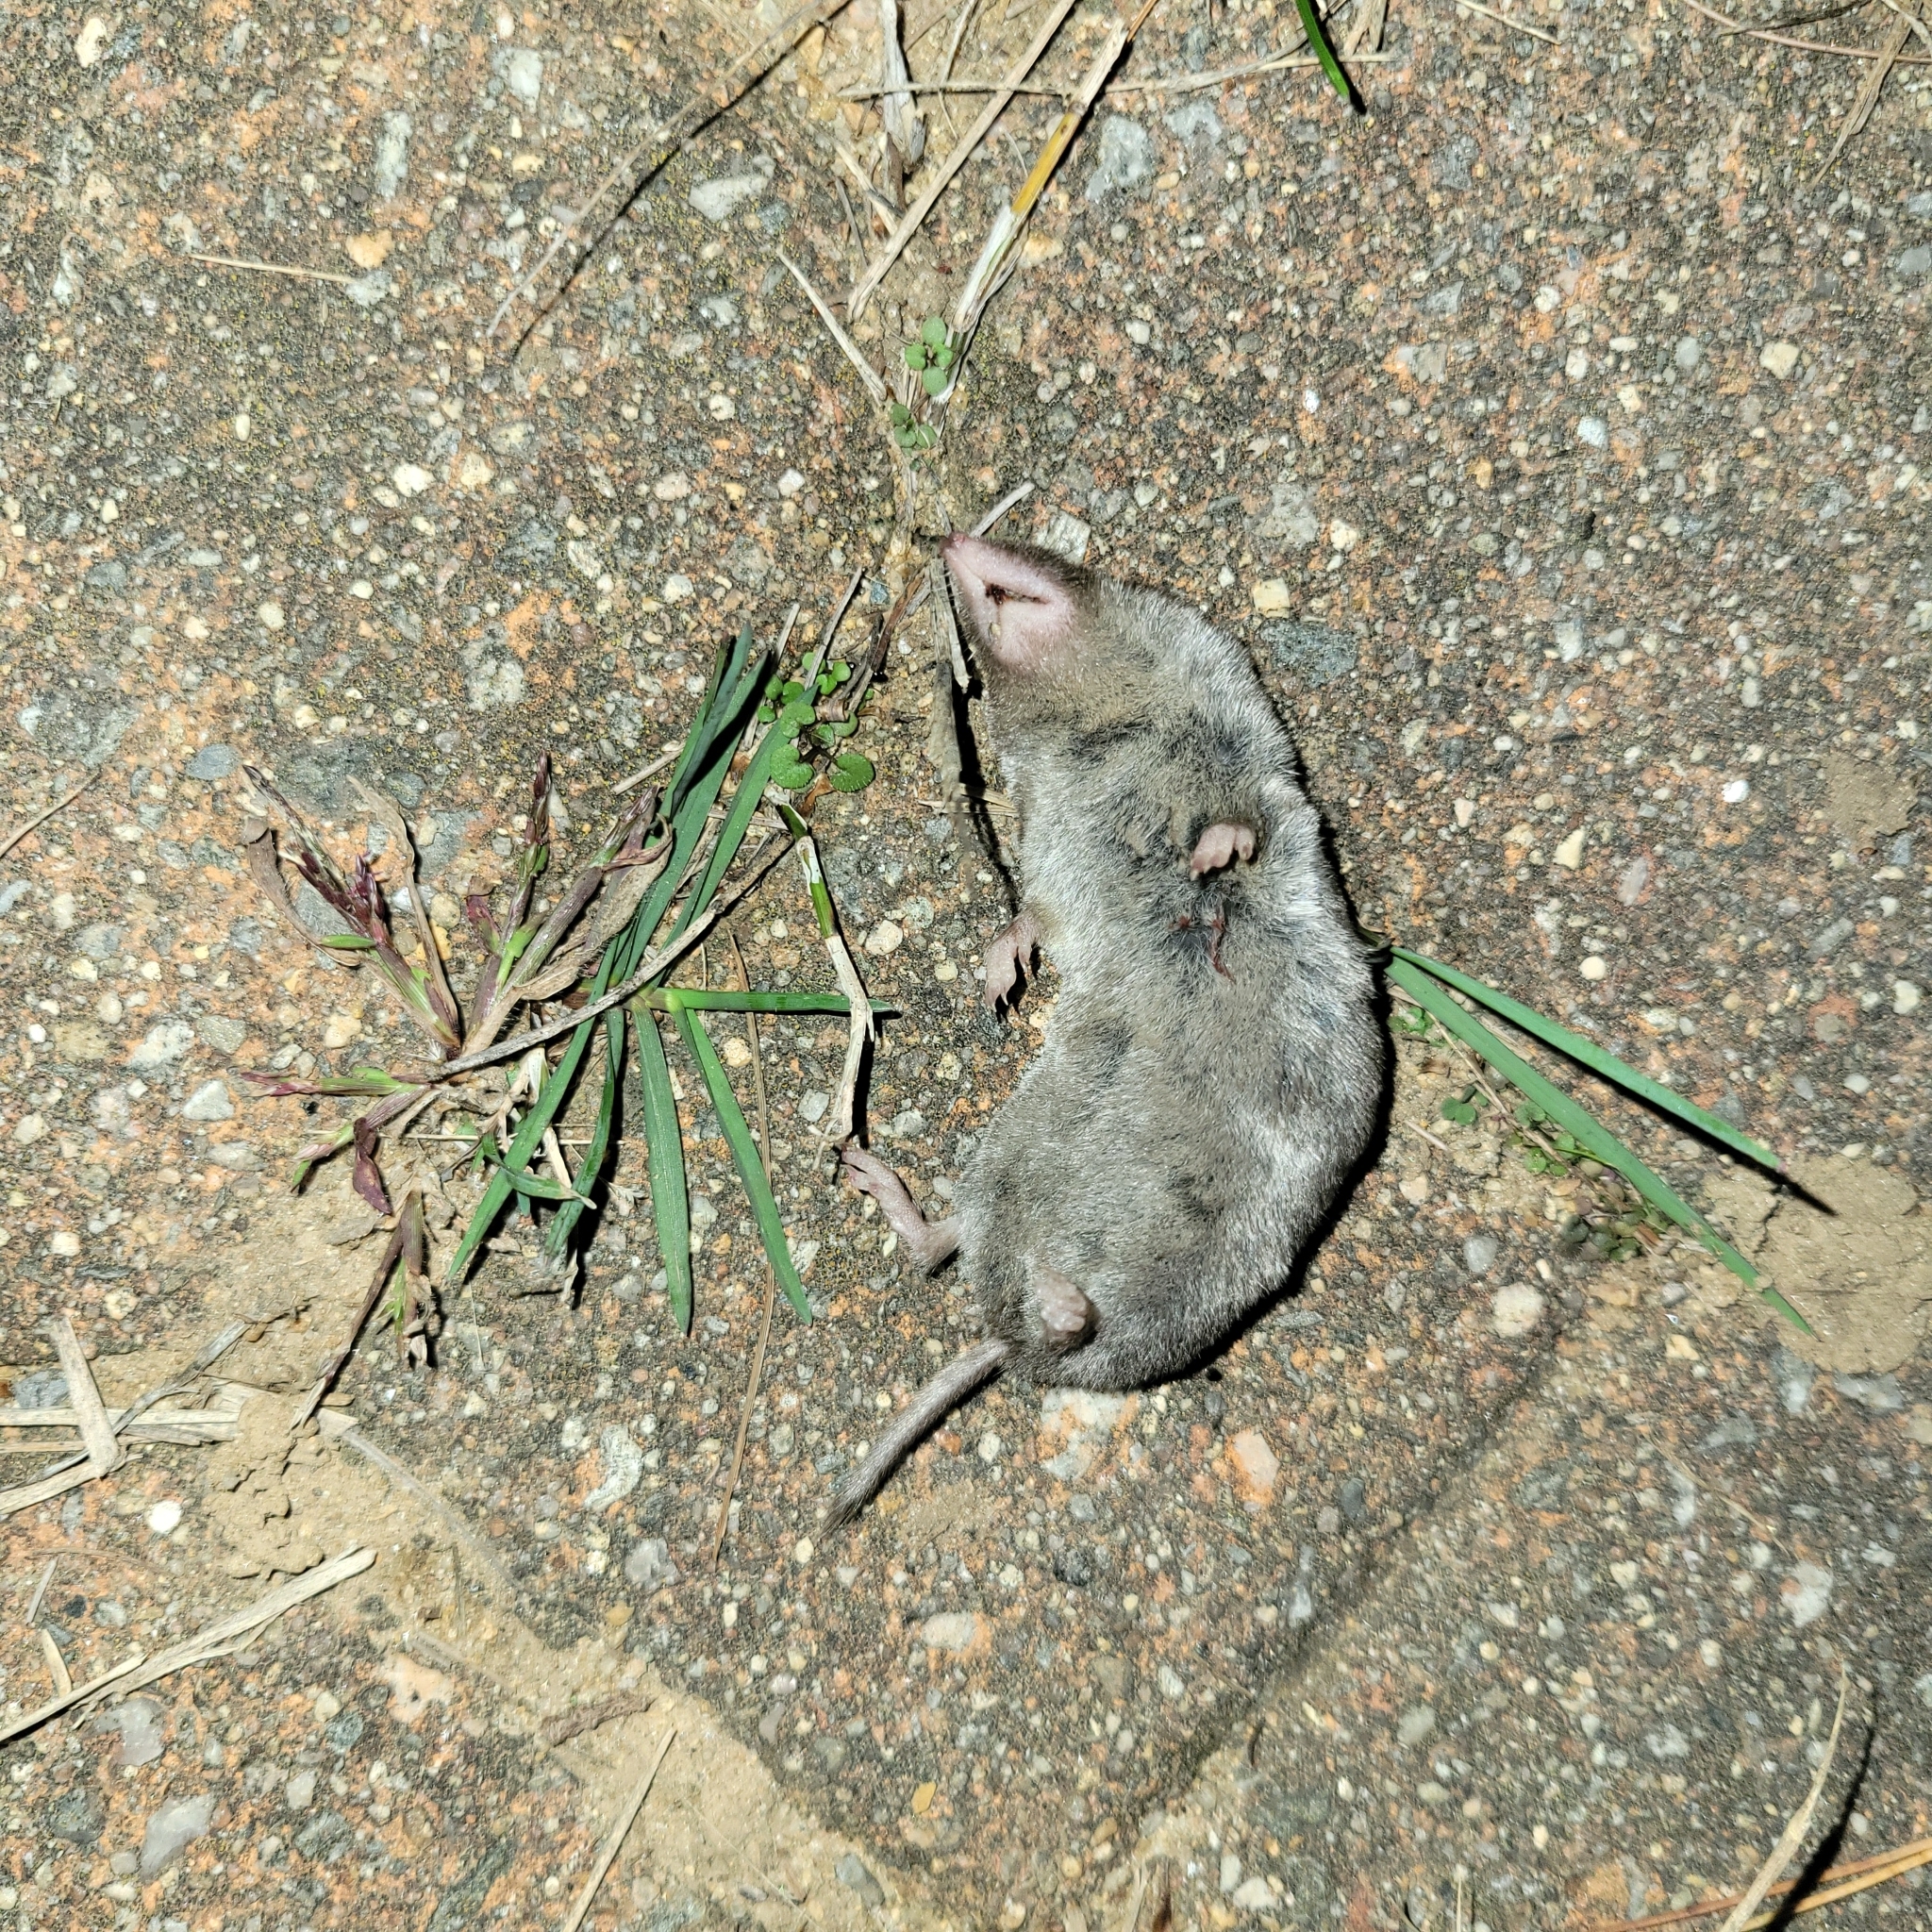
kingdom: Animalia
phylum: Chordata
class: Mammalia
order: Soricomorpha
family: Soricidae
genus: Blarina
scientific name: Blarina brevicauda
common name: Northern short-tailed shrew
